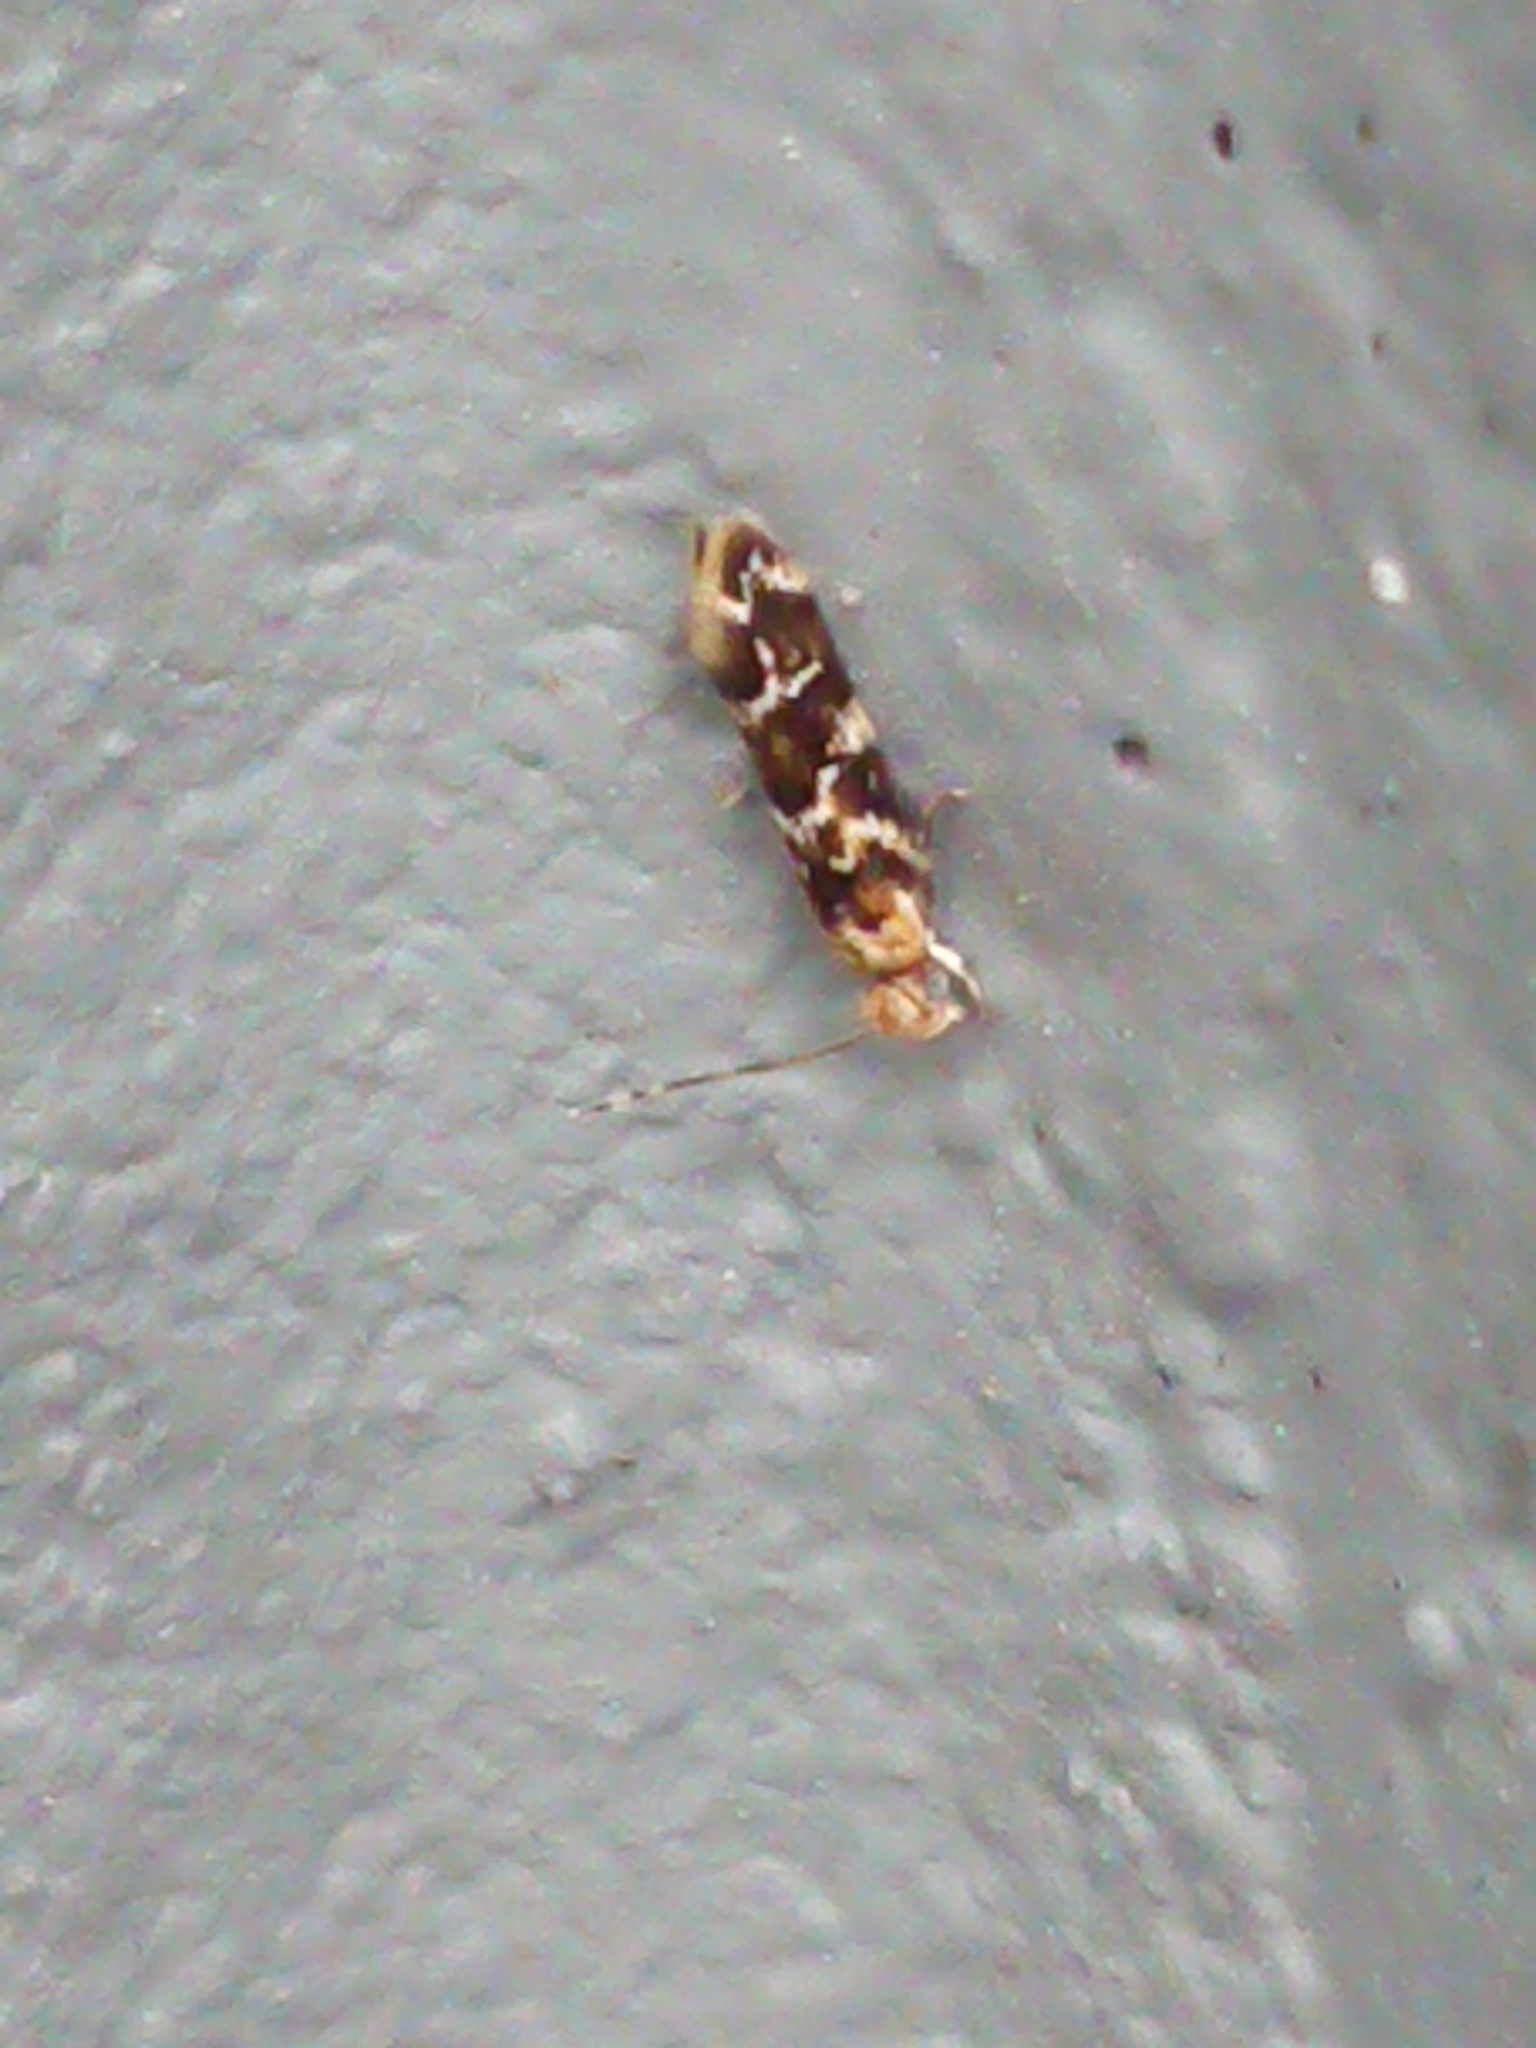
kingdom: Animalia
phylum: Arthropoda
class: Insecta
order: Lepidoptera
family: Dryadaulidae
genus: Dryadaula
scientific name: Dryadaula pactolia
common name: Cellar clothes
